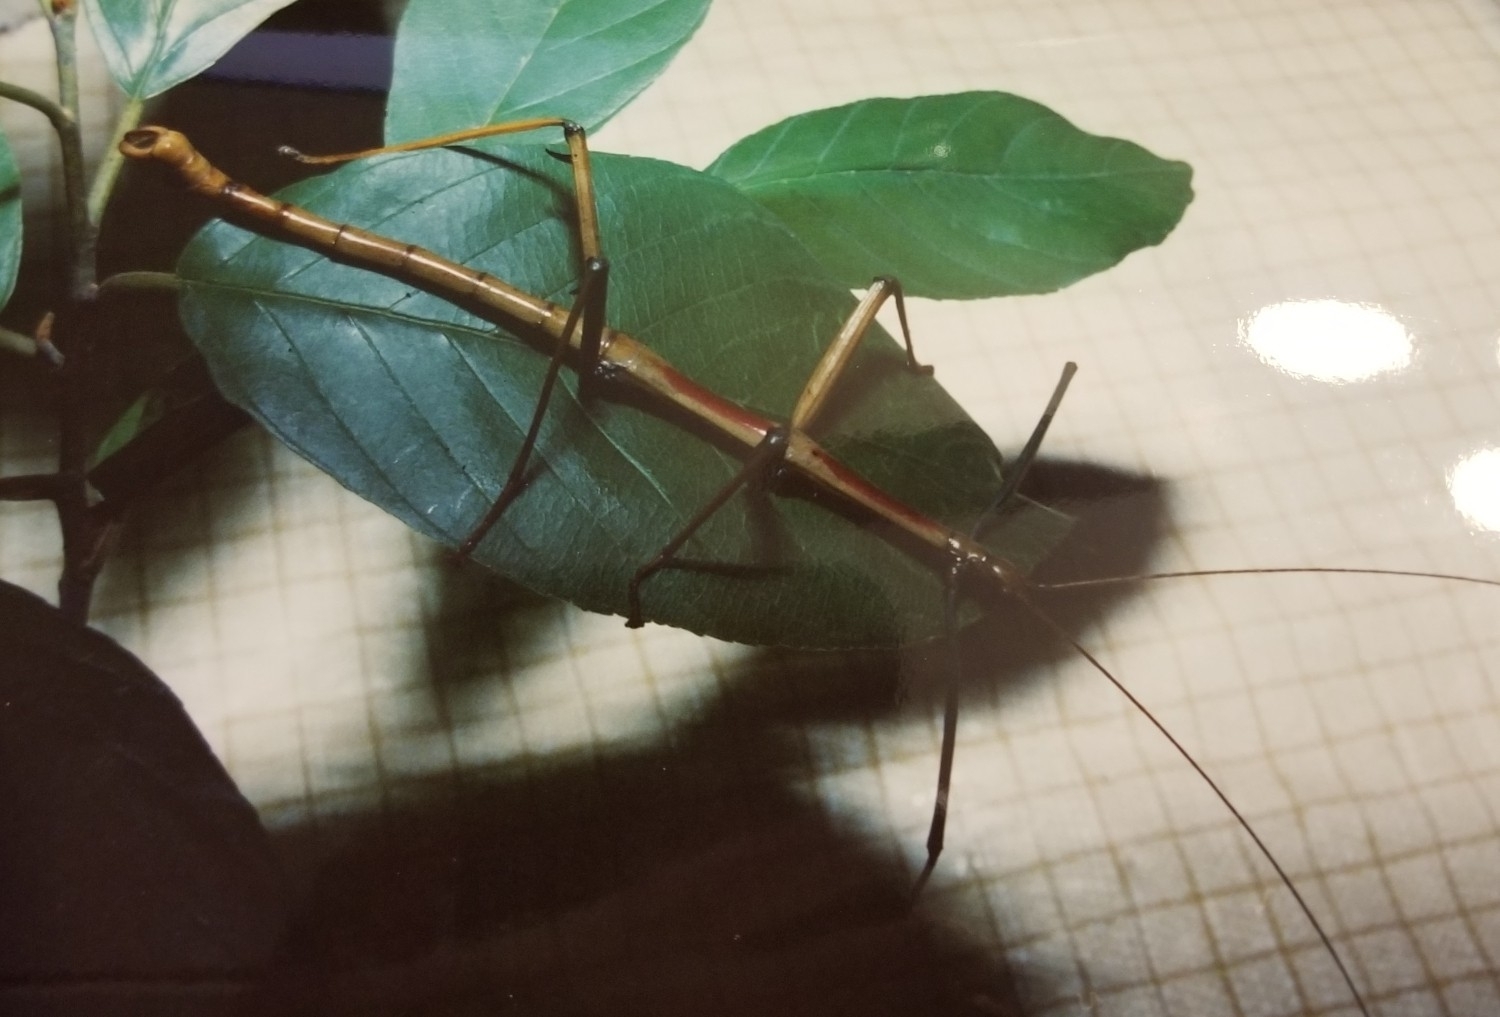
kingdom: Animalia
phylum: Arthropoda
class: Insecta
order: Phasmida
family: Diapheromeridae
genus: Megaphasma
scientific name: Megaphasma denticrus
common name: Giant walkingstick
